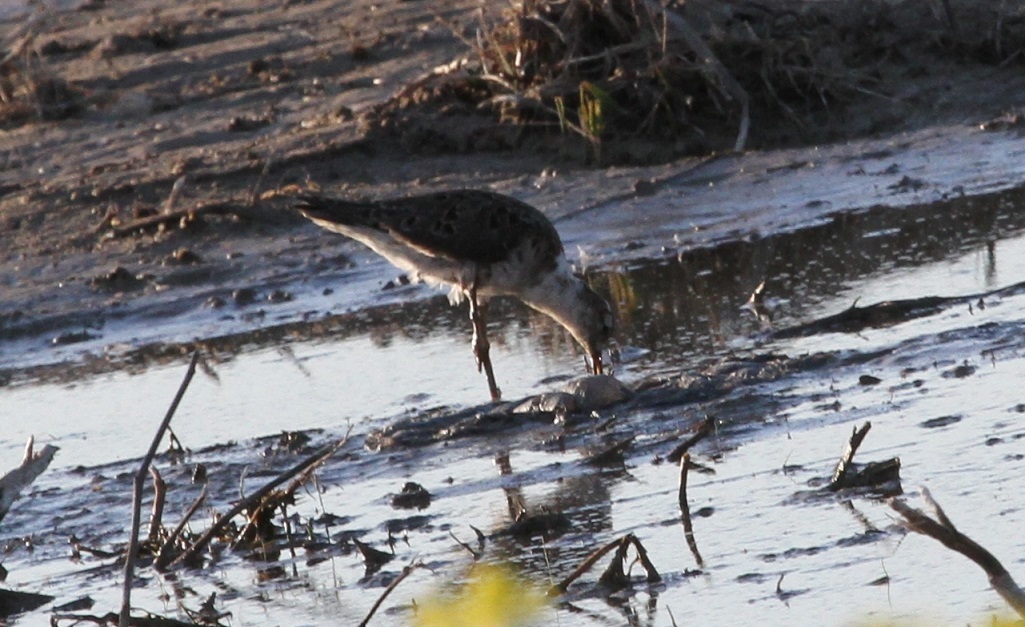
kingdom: Animalia
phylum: Chordata
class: Aves
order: Charadriiformes
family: Scolopacidae
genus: Calidris
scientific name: Calidris pugnax
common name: Ruff
